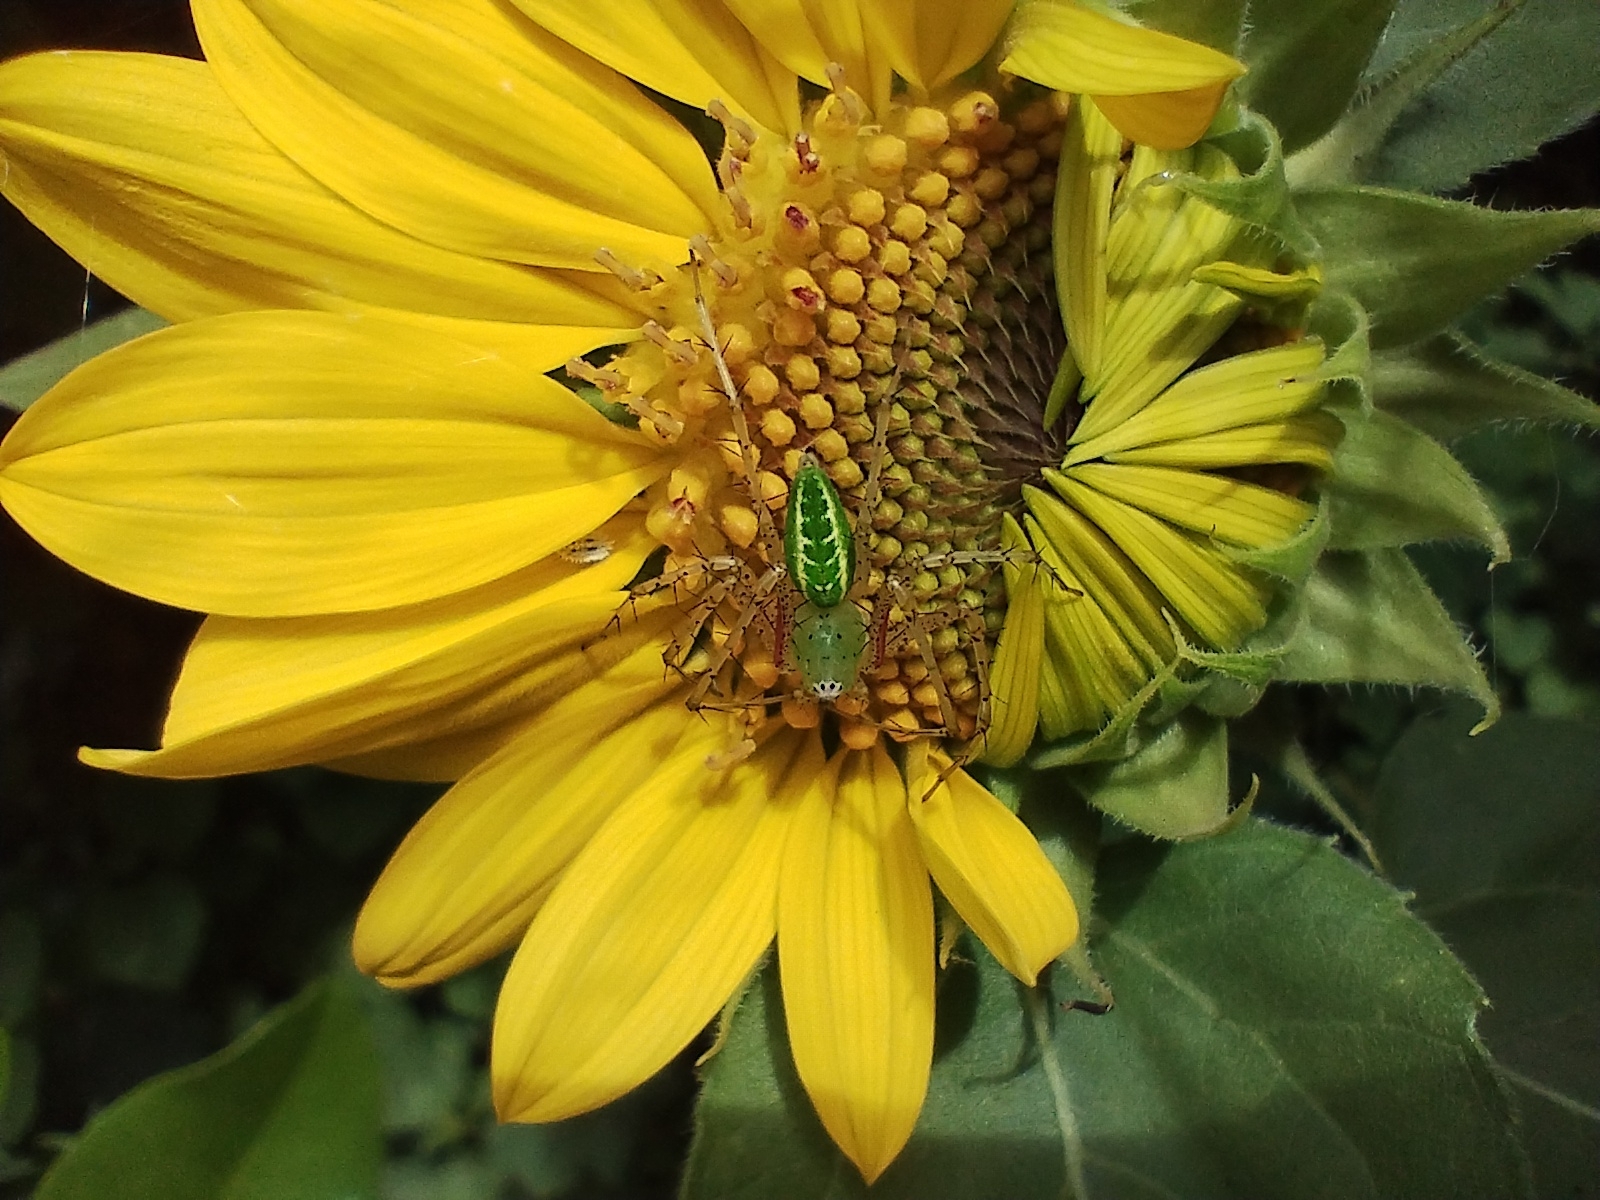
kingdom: Animalia
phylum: Arthropoda
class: Arachnida
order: Araneae
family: Oxyopidae
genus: Peucetia
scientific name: Peucetia viridana
